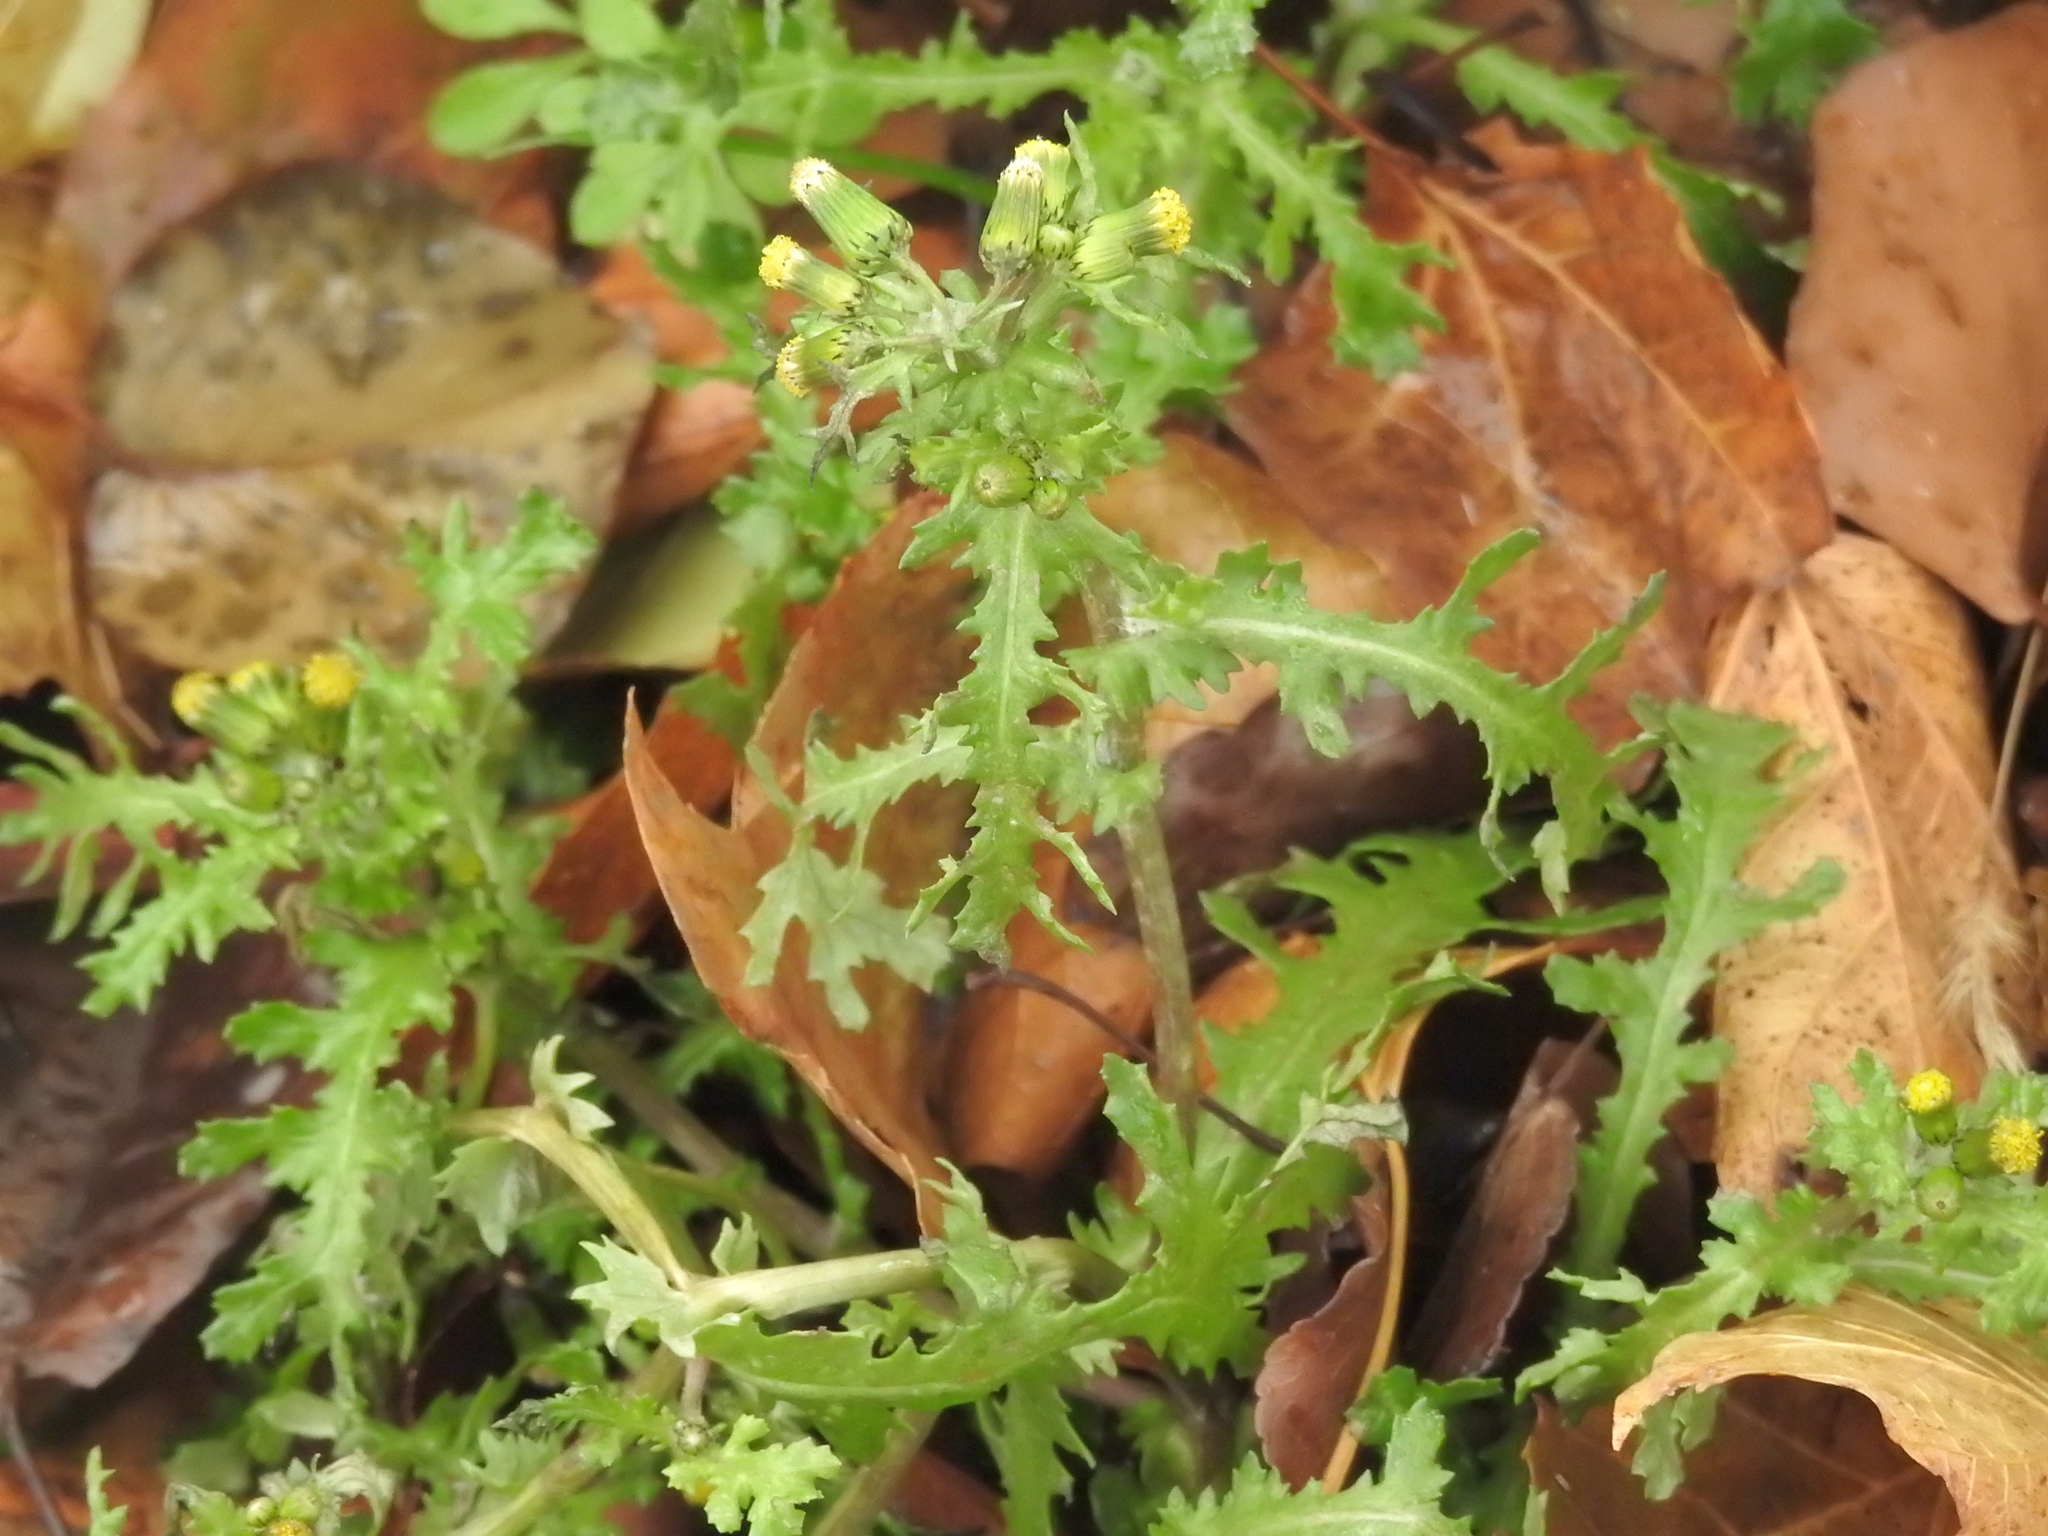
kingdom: Plantae
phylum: Tracheophyta
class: Magnoliopsida
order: Asterales
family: Asteraceae
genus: Senecio
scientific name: Senecio vulgaris
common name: Old-man-in-the-spring
